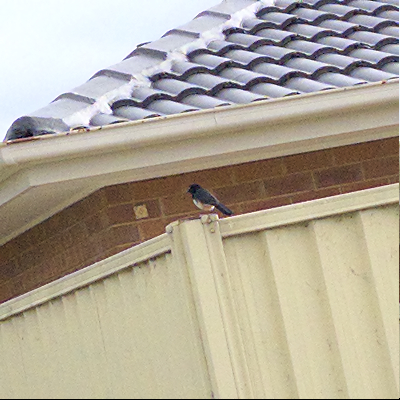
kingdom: Animalia
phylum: Chordata
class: Aves
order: Passeriformes
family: Rhipiduridae
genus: Rhipidura
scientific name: Rhipidura leucophrys
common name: Willie wagtail
